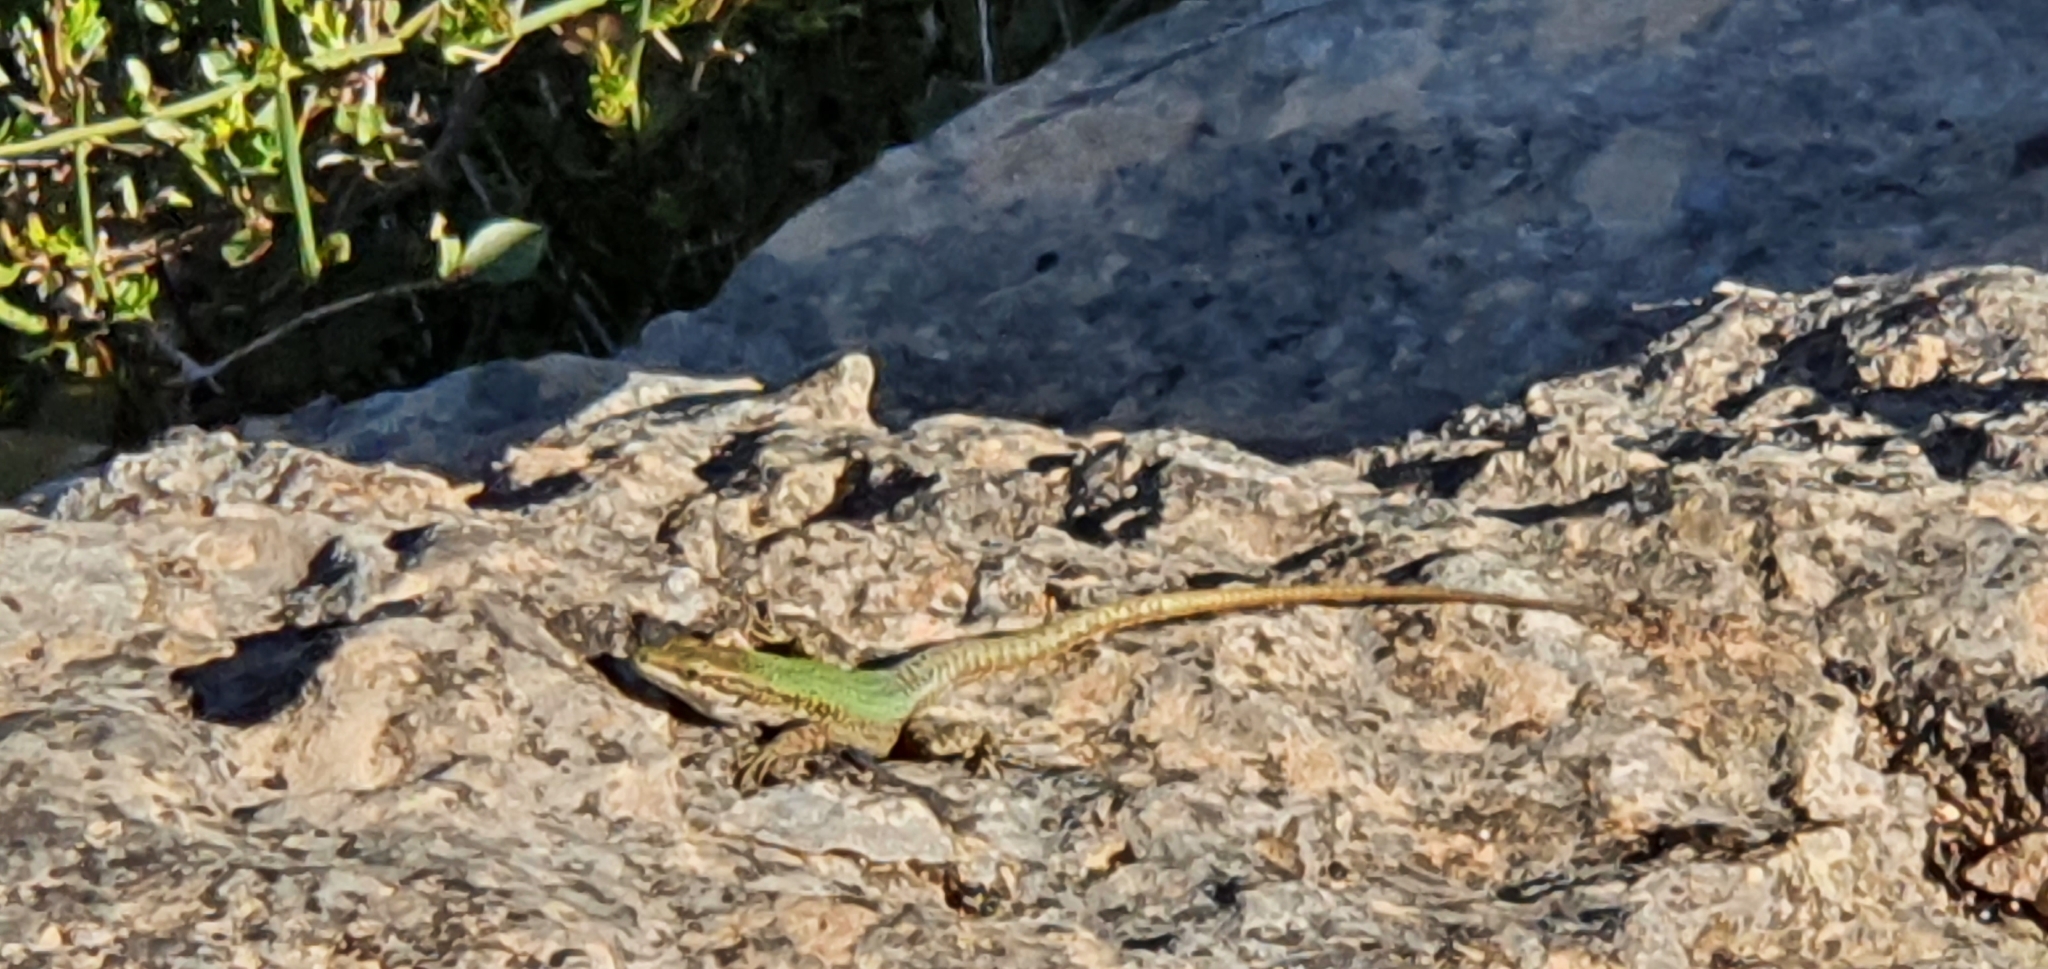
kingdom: Animalia
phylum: Chordata
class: Squamata
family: Lacertidae
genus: Podarcis
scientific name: Podarcis vaucheri
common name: Vaucher's wall lizard
